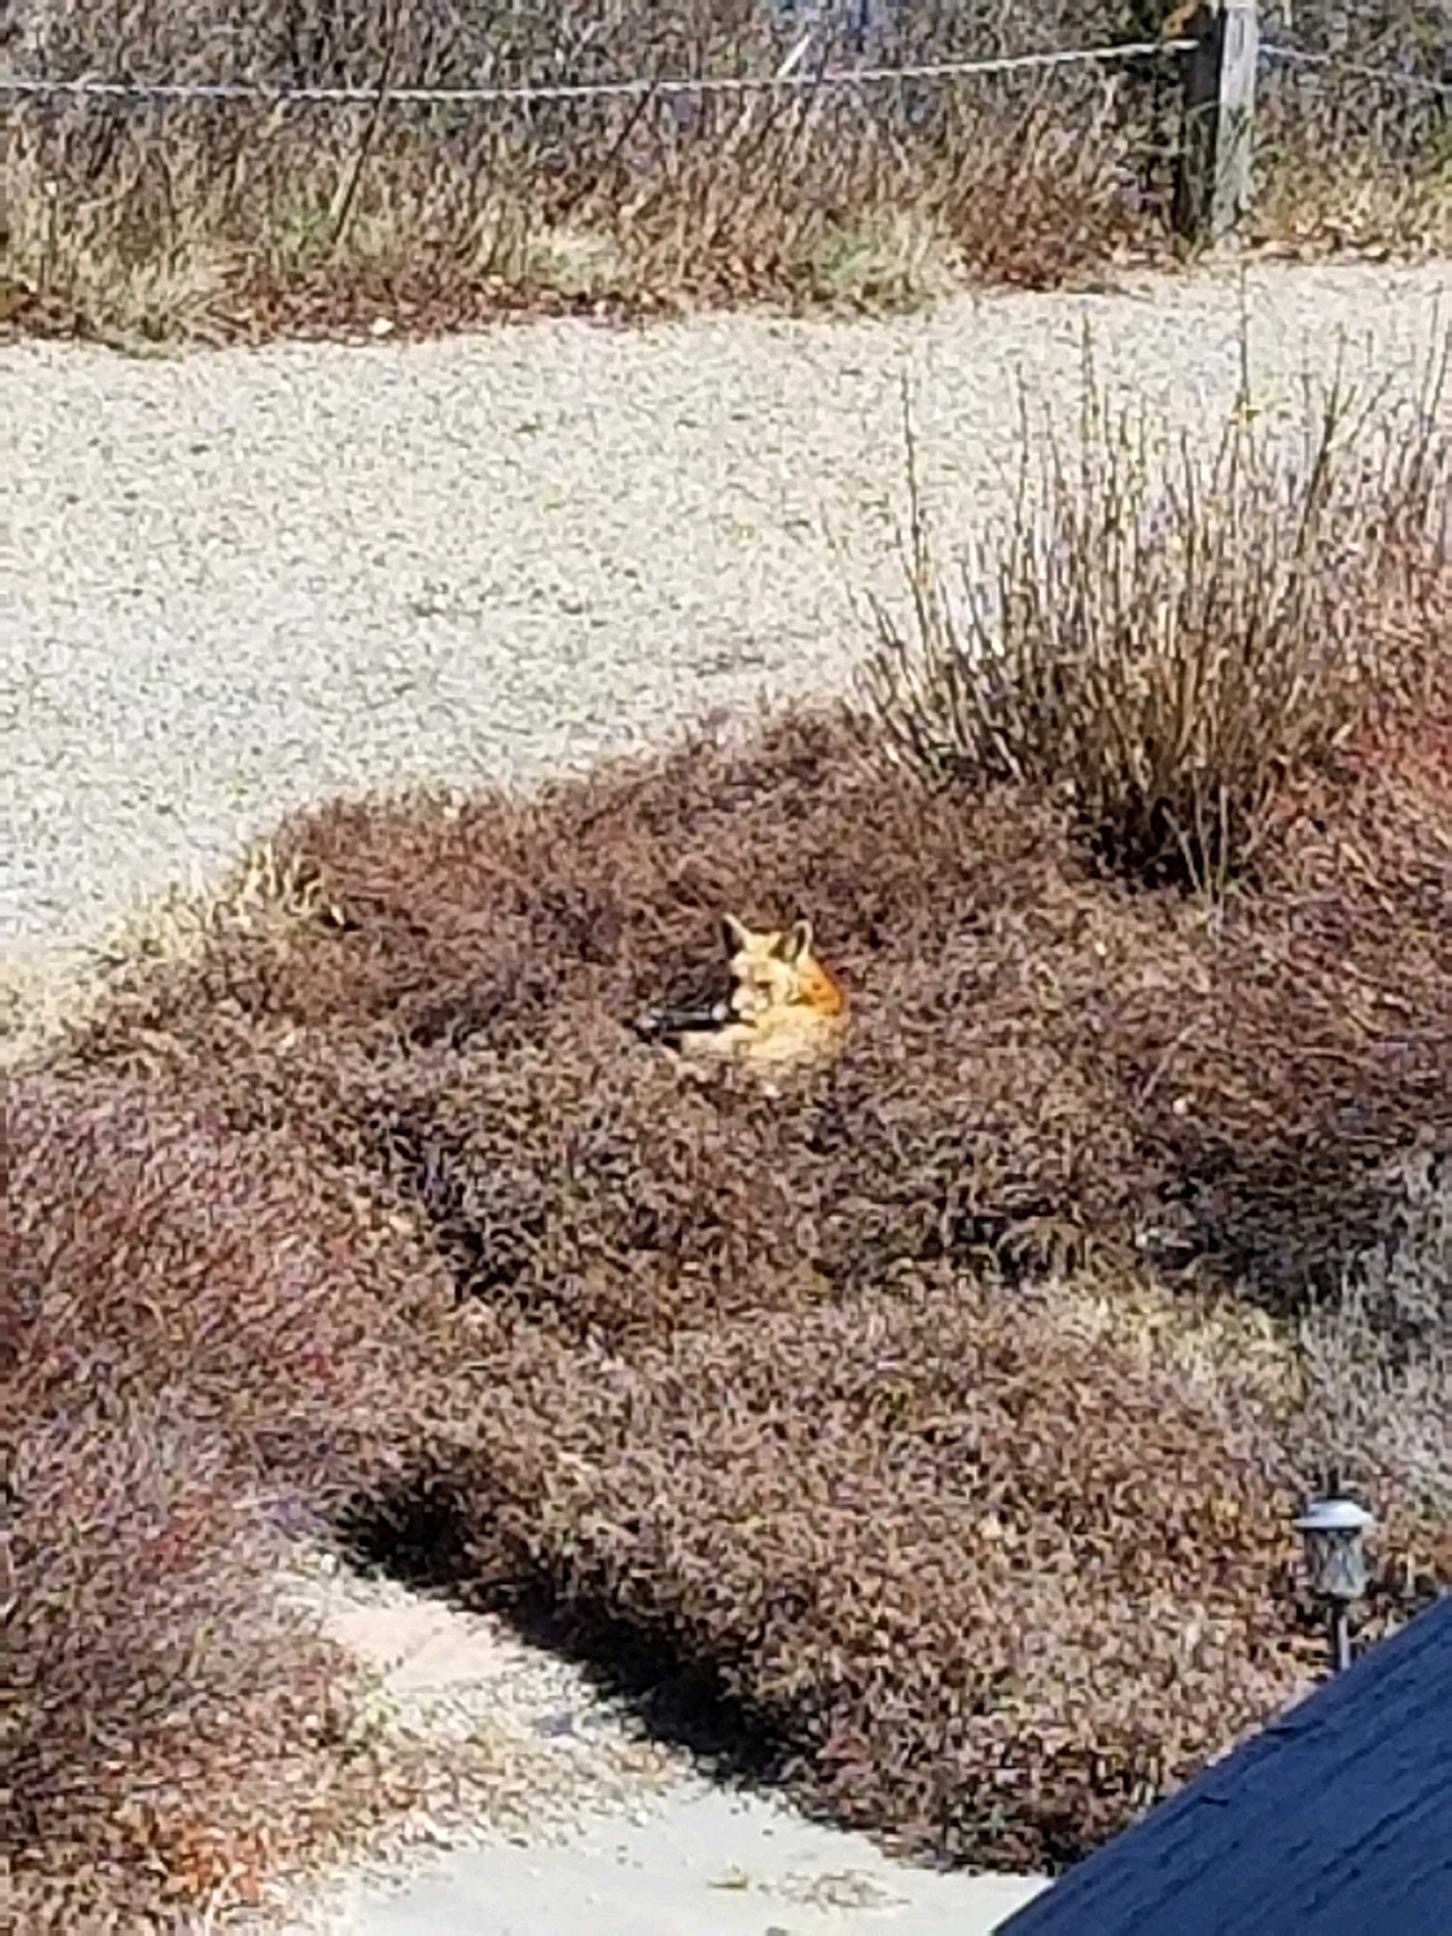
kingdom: Animalia
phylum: Chordata
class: Mammalia
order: Carnivora
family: Canidae
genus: Vulpes
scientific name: Vulpes vulpes
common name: Red fox
